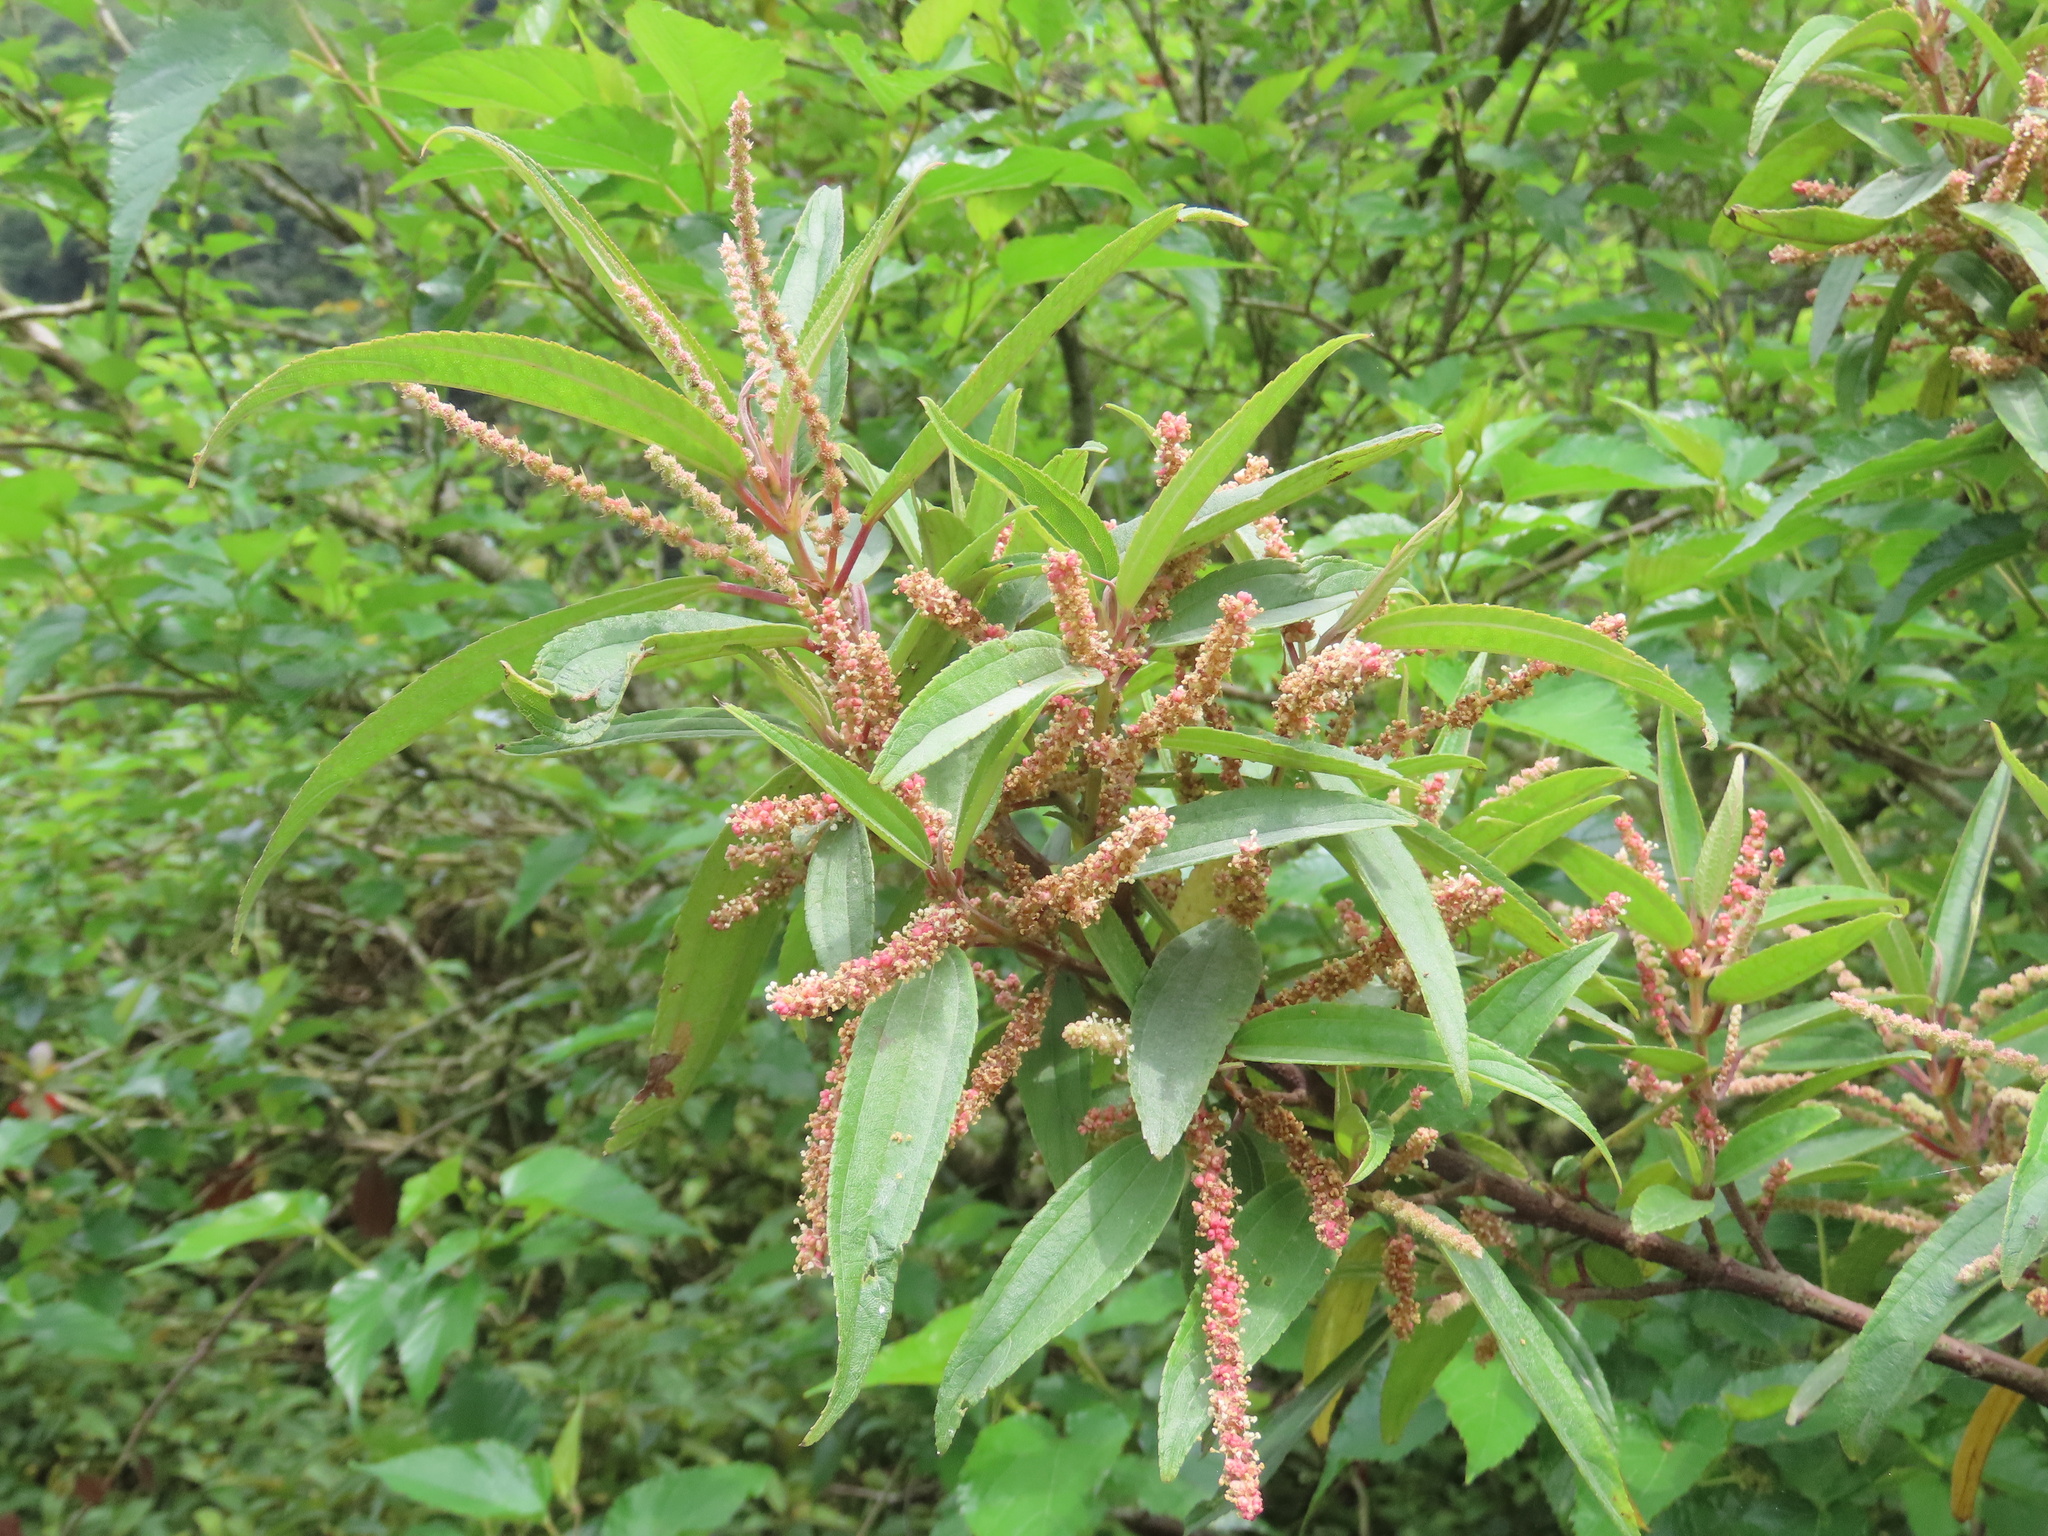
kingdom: Plantae
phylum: Tracheophyta
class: Magnoliopsida
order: Rosales
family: Urticaceae
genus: Boehmeria
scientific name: Boehmeria densiflora
